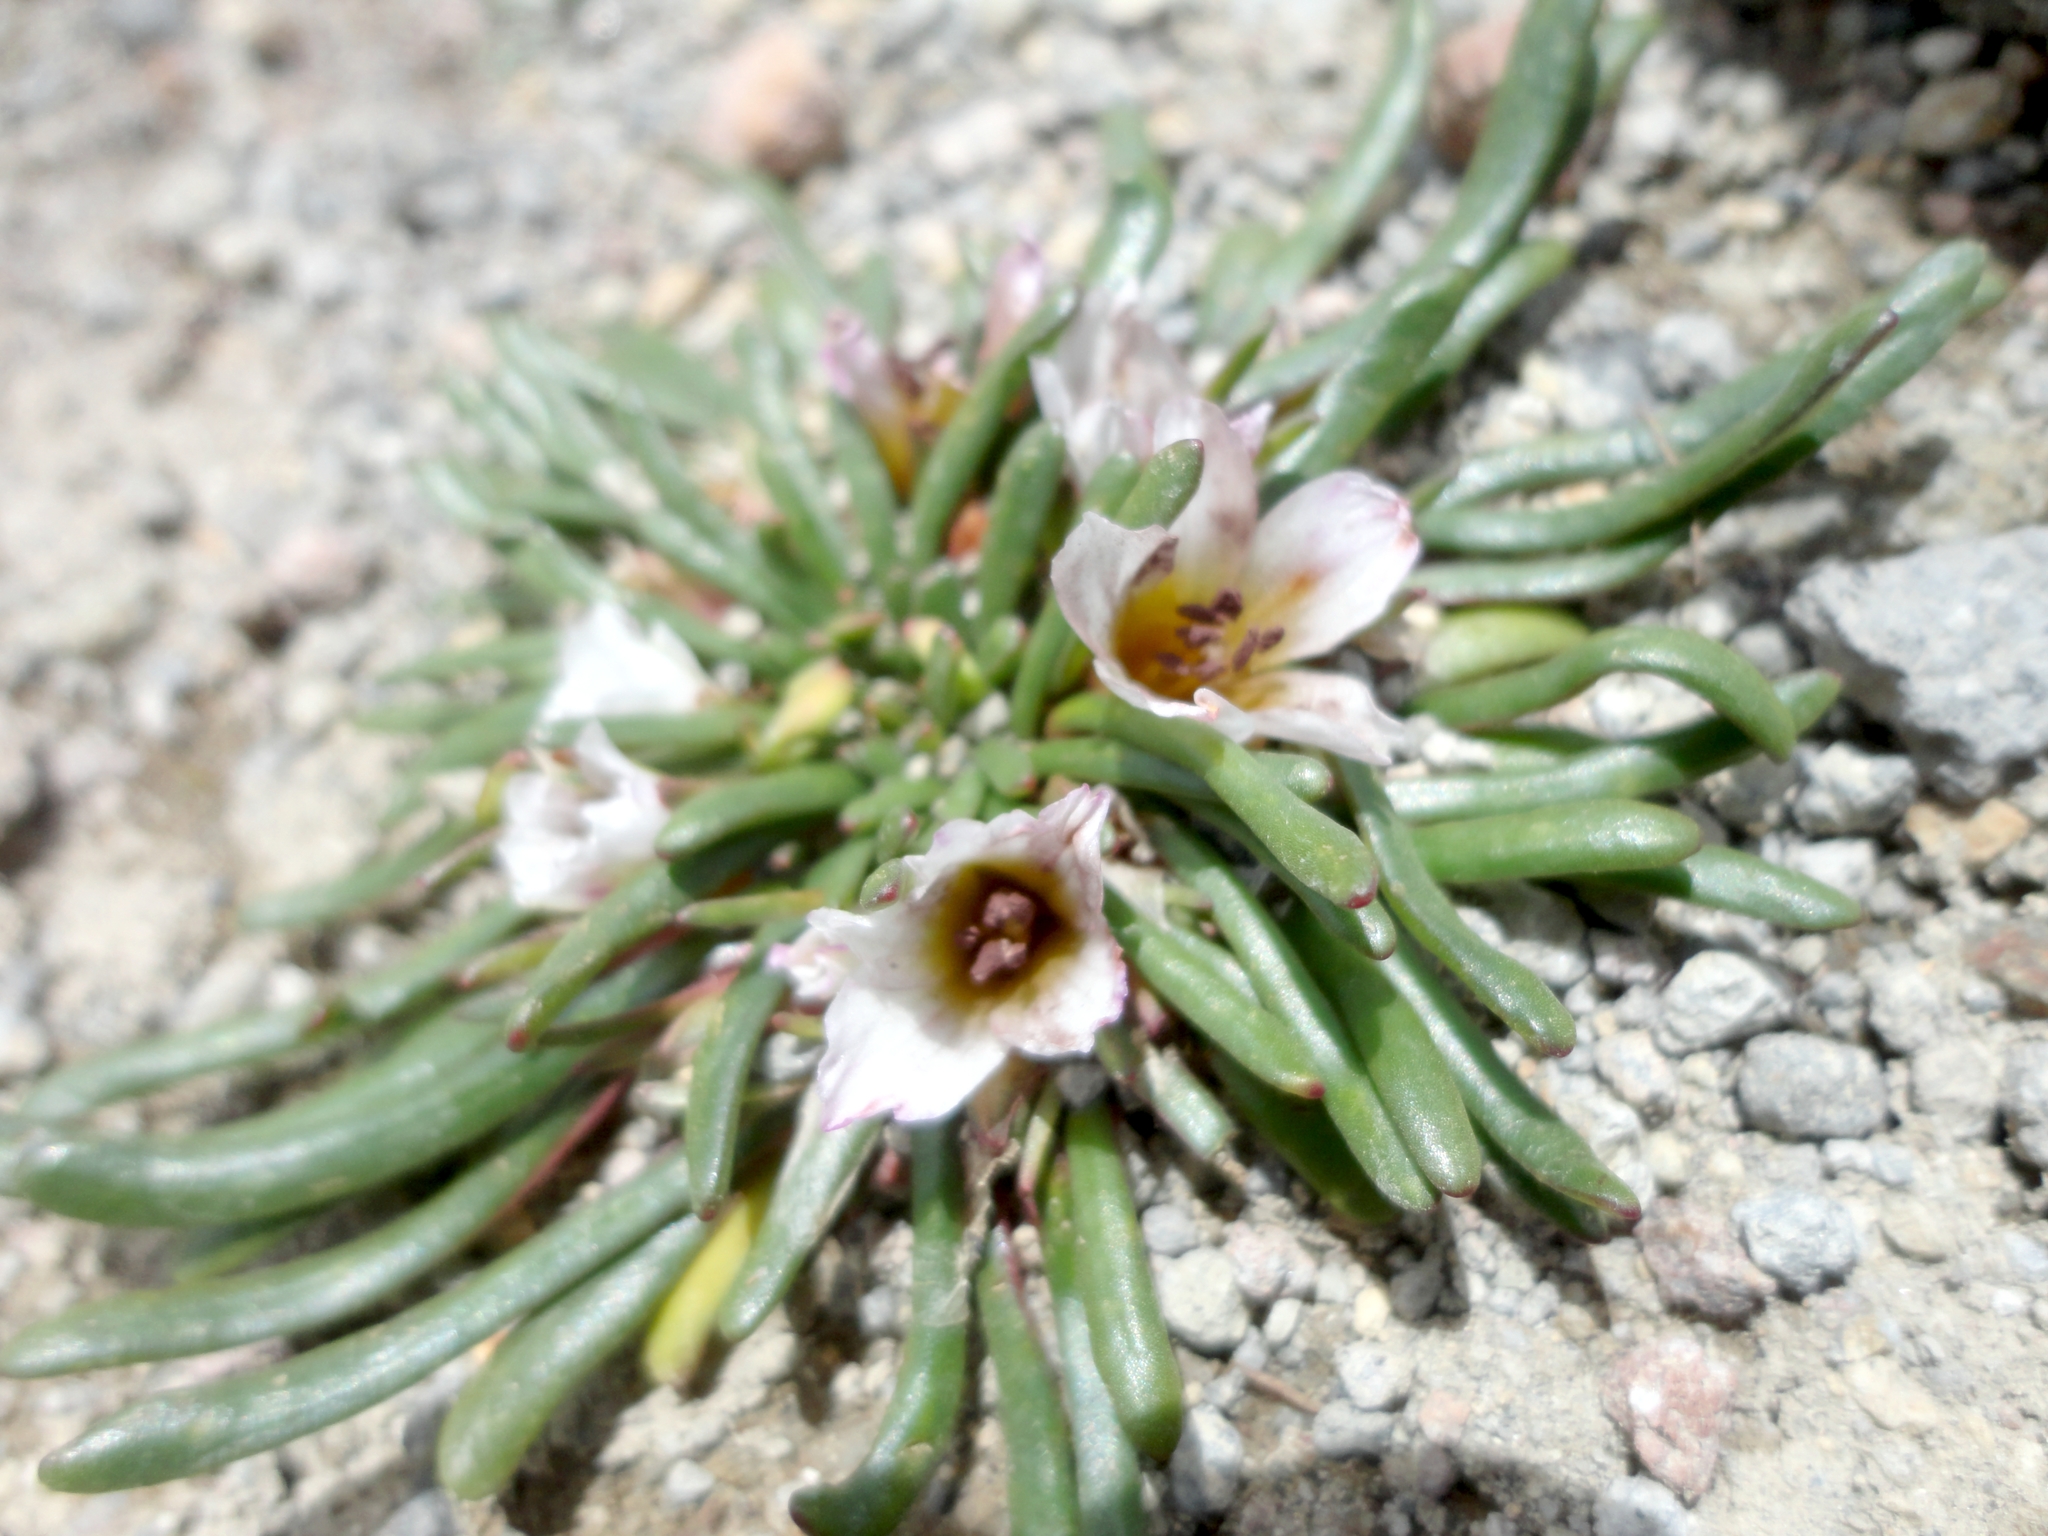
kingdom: Plantae
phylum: Tracheophyta
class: Magnoliopsida
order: Caryophyllales
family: Montiaceae
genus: Calandrinia
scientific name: Calandrinia acaulis
